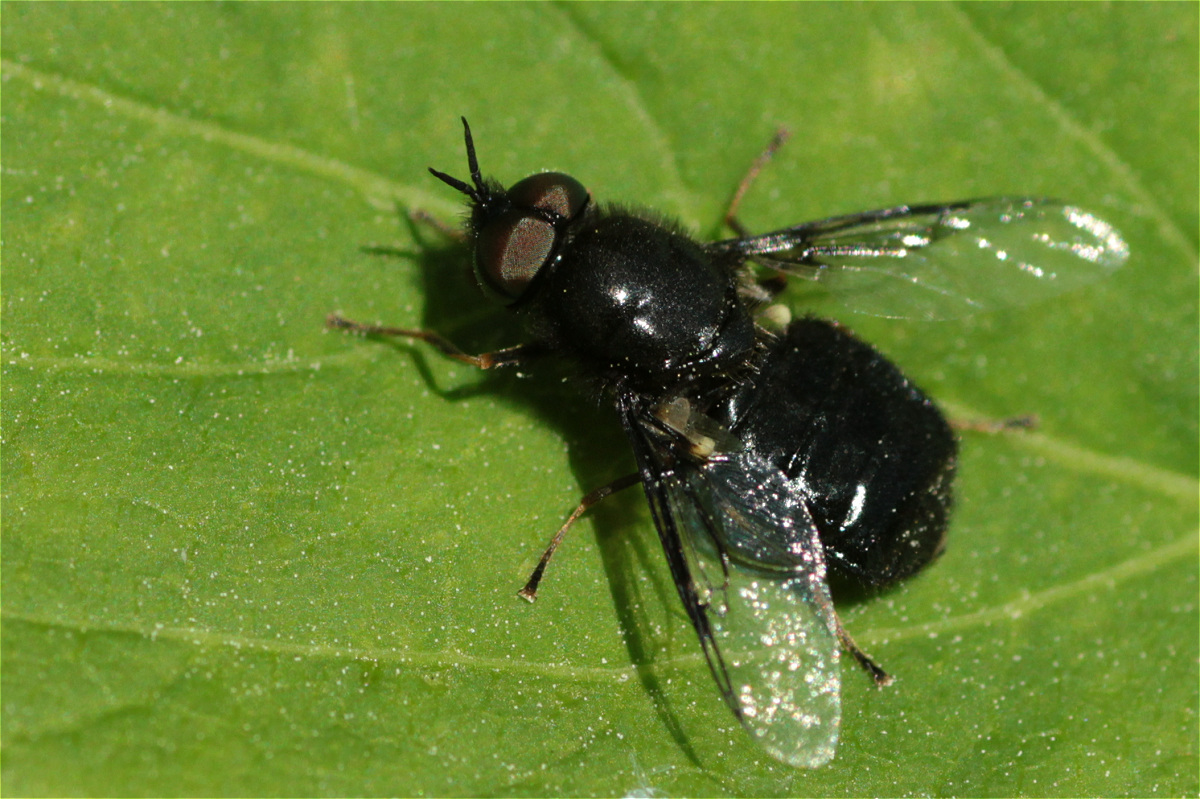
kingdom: Animalia
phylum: Arthropoda
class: Insecta
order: Diptera
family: Stratiomyidae
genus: Odontomyia
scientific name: Odontomyia tigrina
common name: Black colonel
